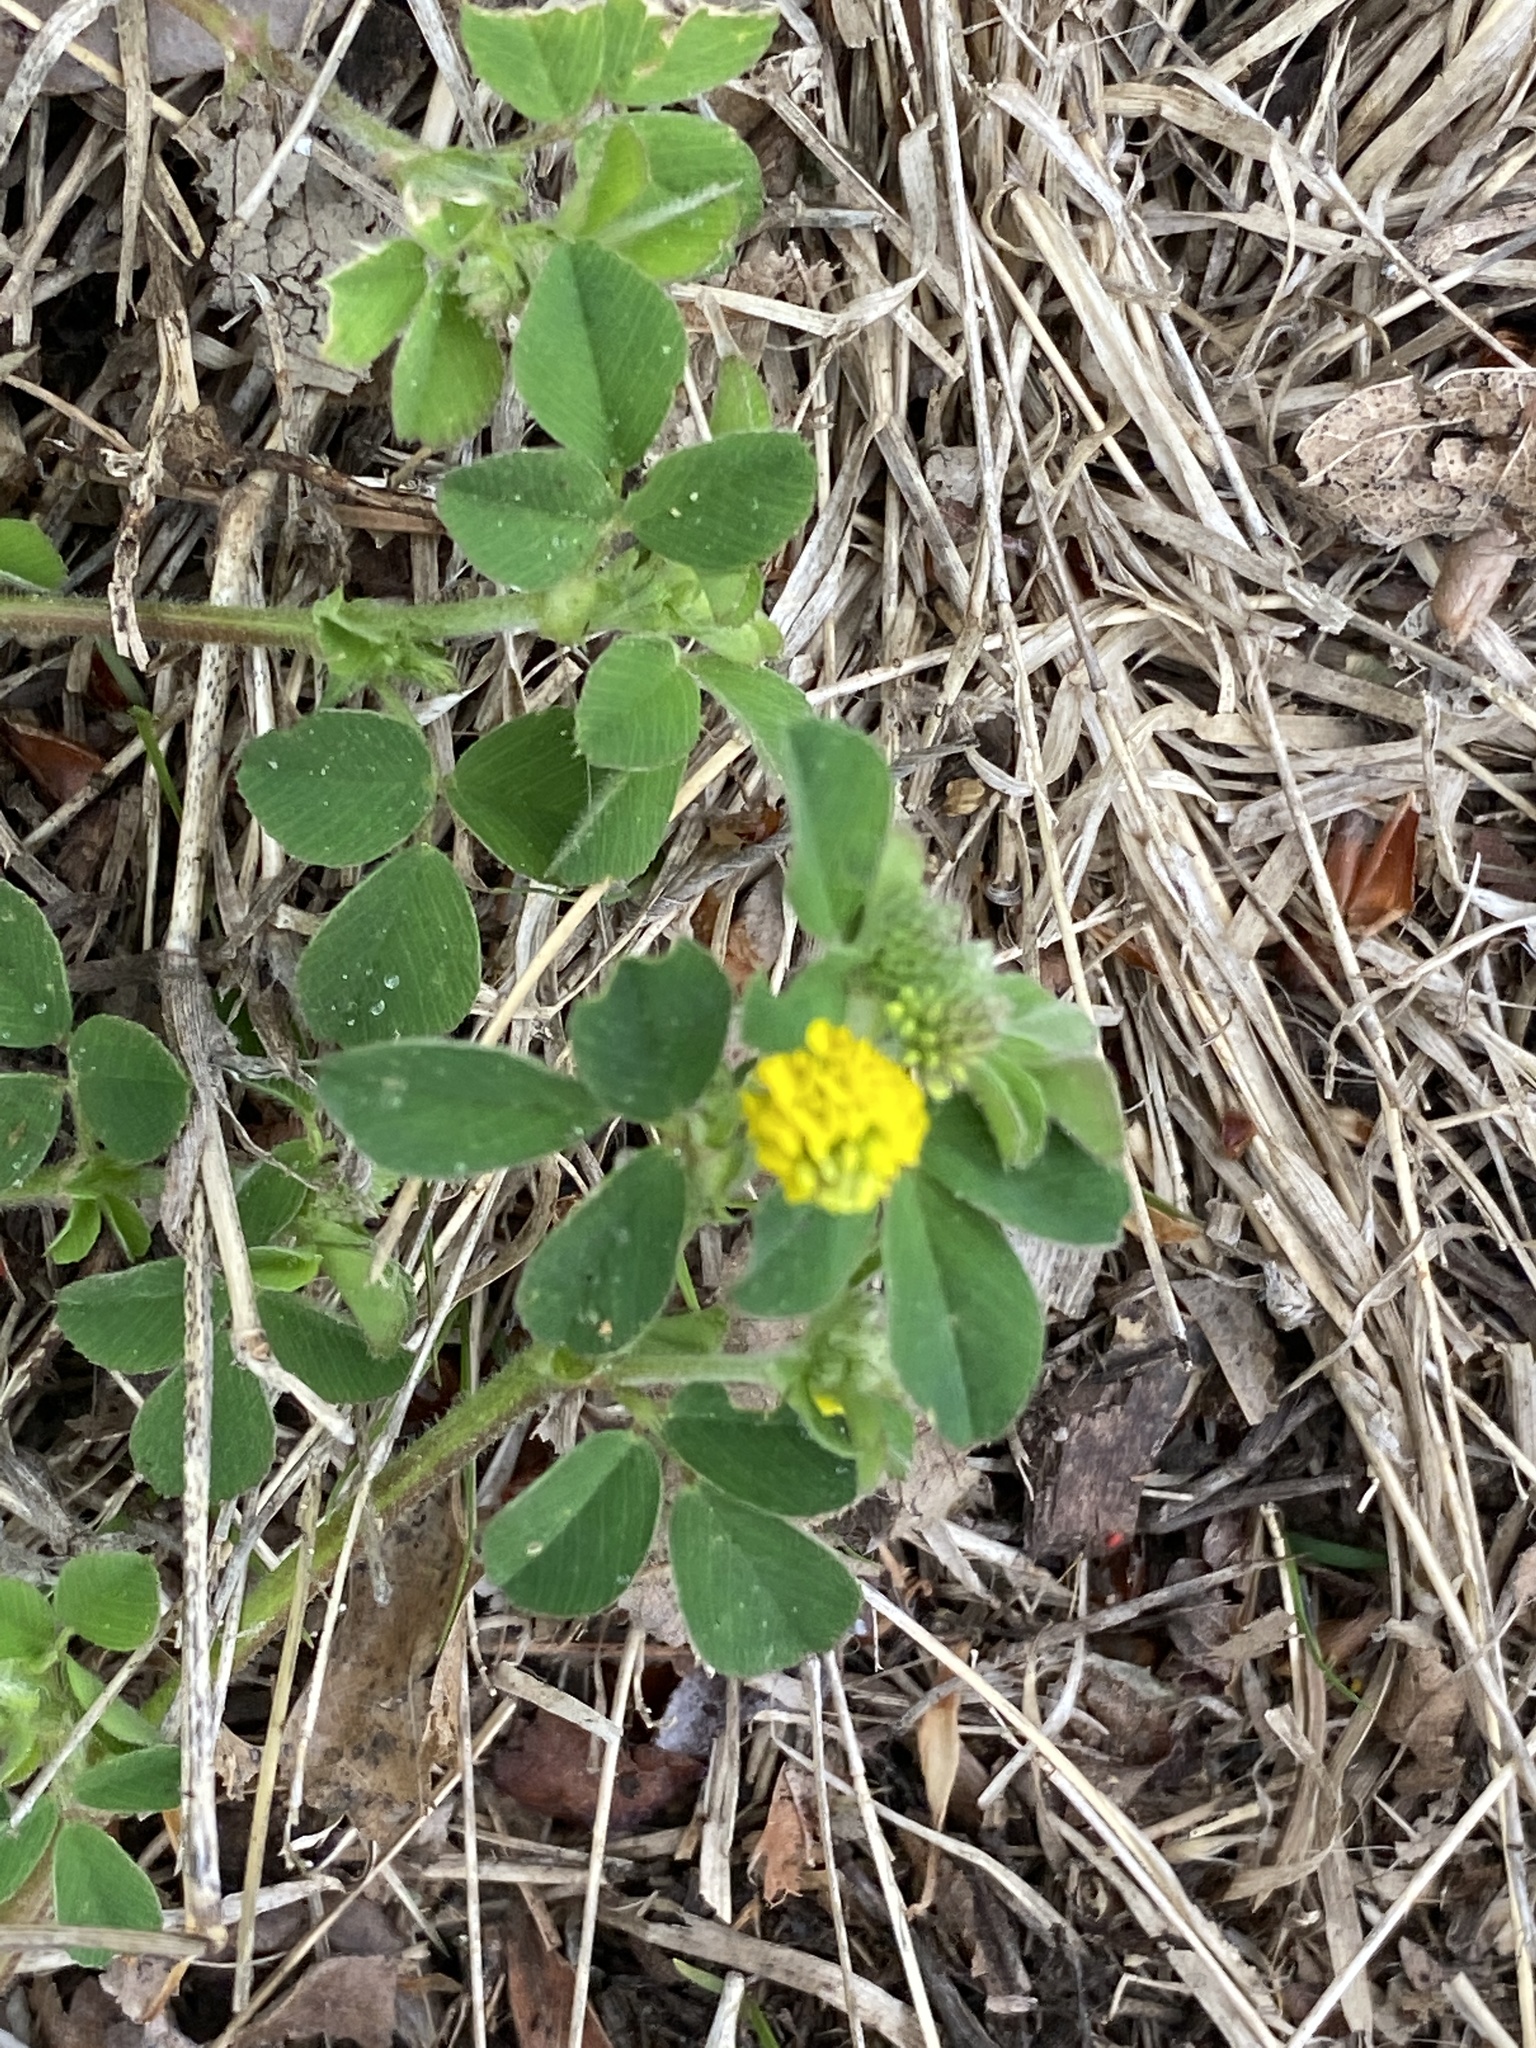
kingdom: Plantae
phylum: Tracheophyta
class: Magnoliopsida
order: Fabales
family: Fabaceae
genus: Medicago
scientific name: Medicago lupulina
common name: Black medick
